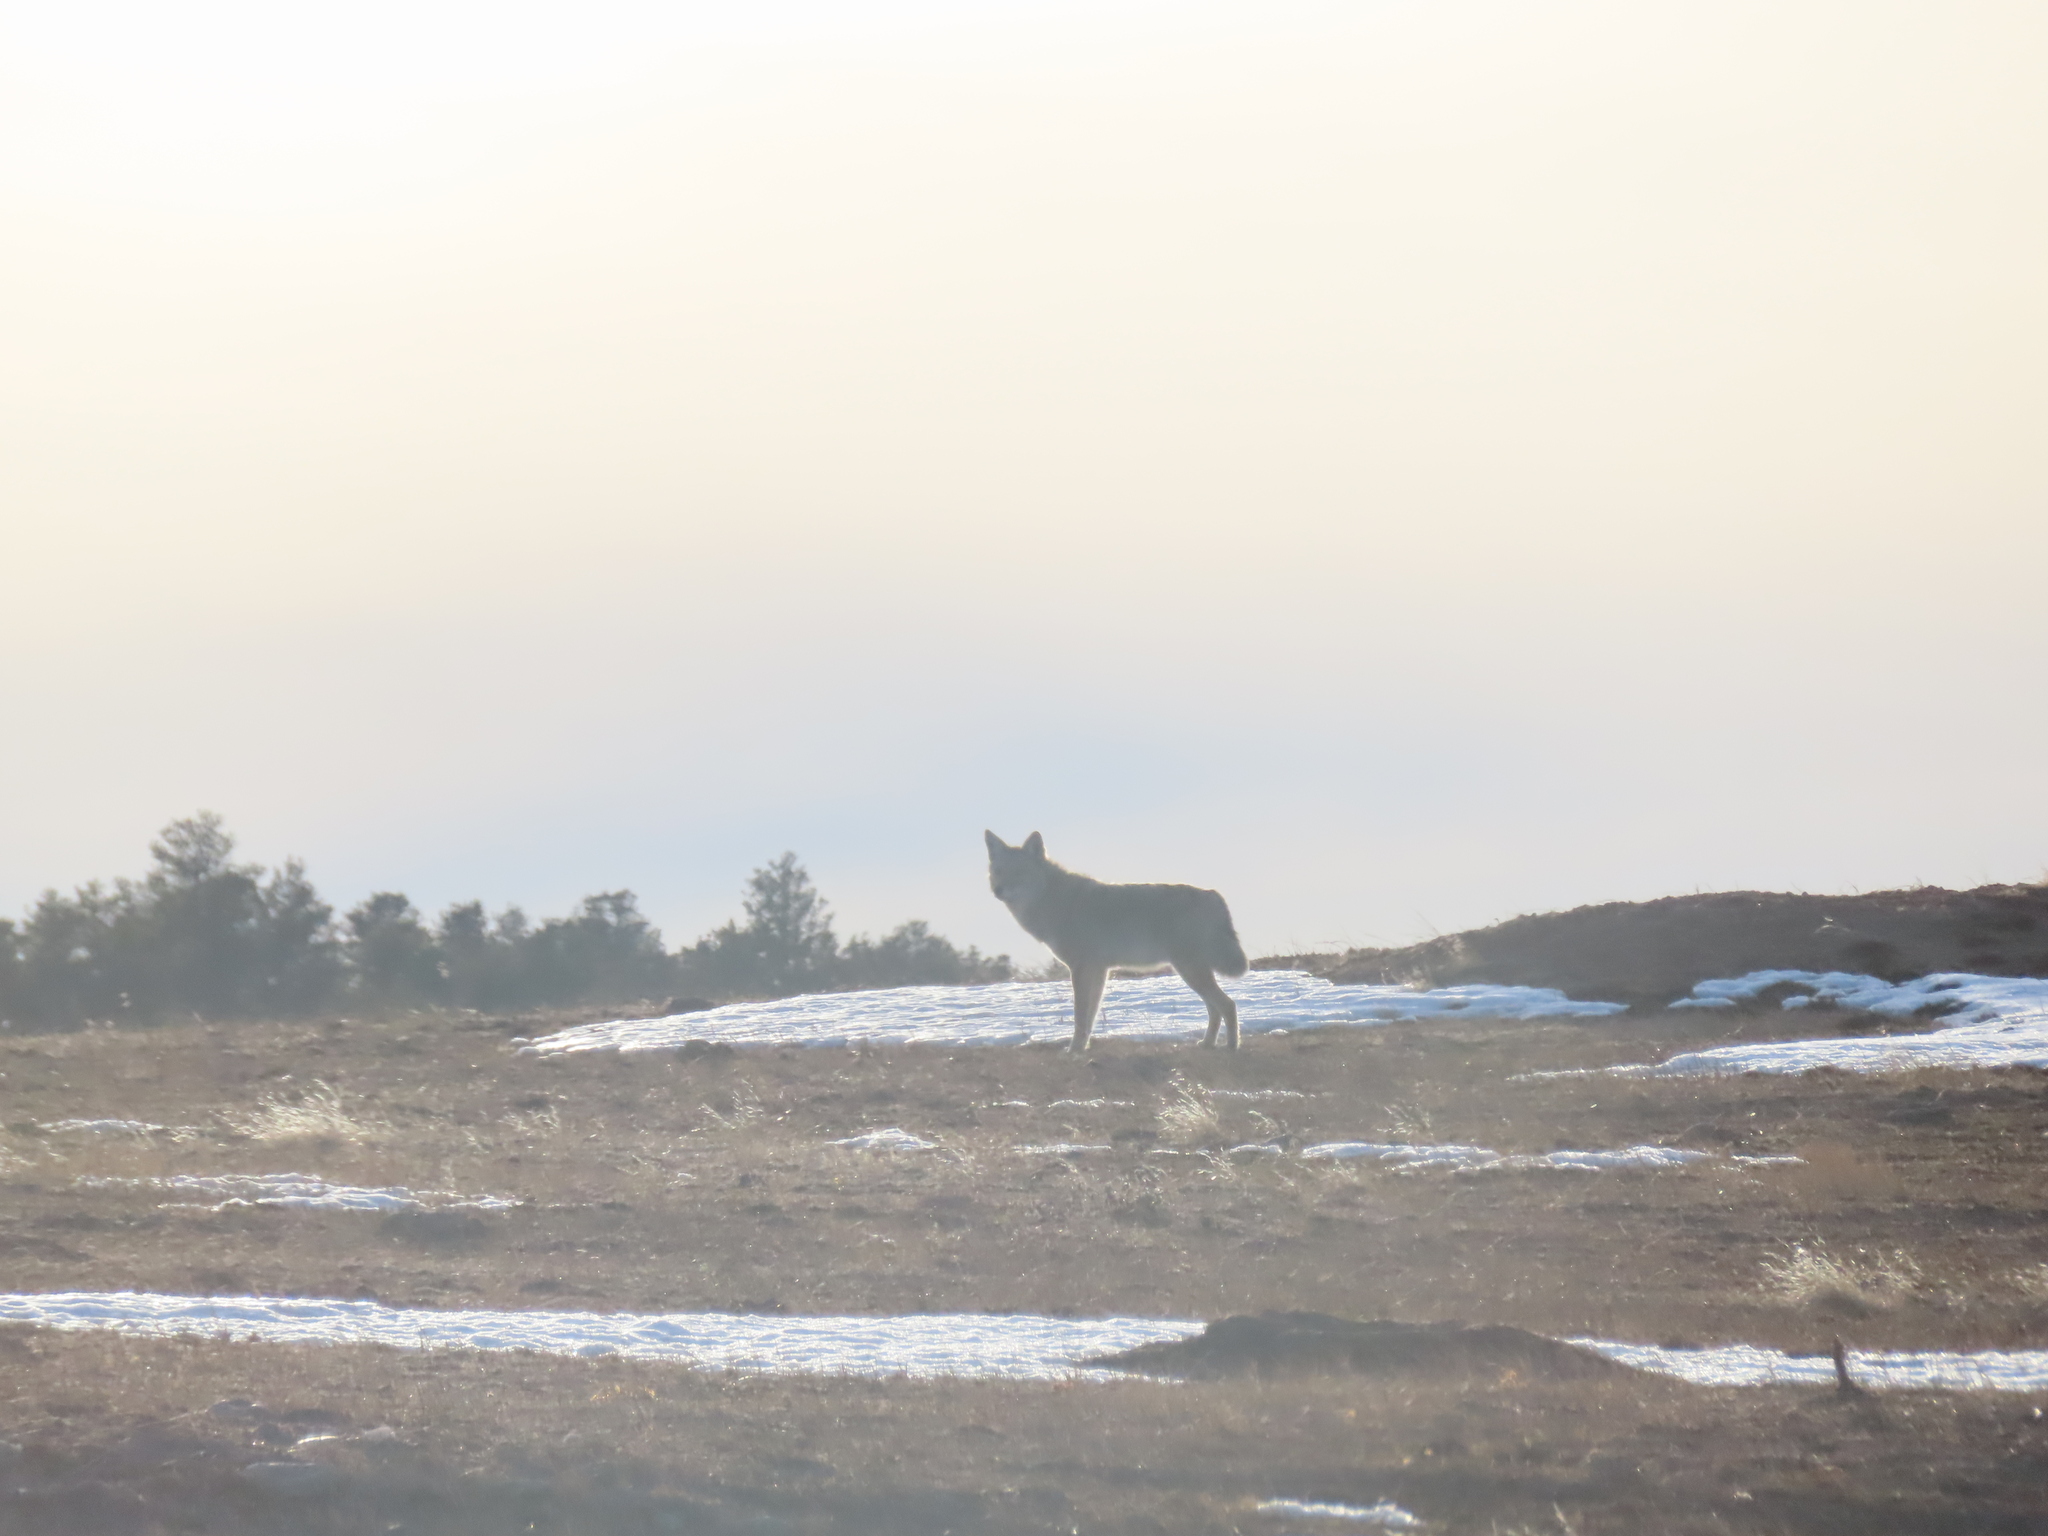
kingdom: Animalia
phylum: Chordata
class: Mammalia
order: Carnivora
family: Canidae
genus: Canis
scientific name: Canis latrans
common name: Coyote
